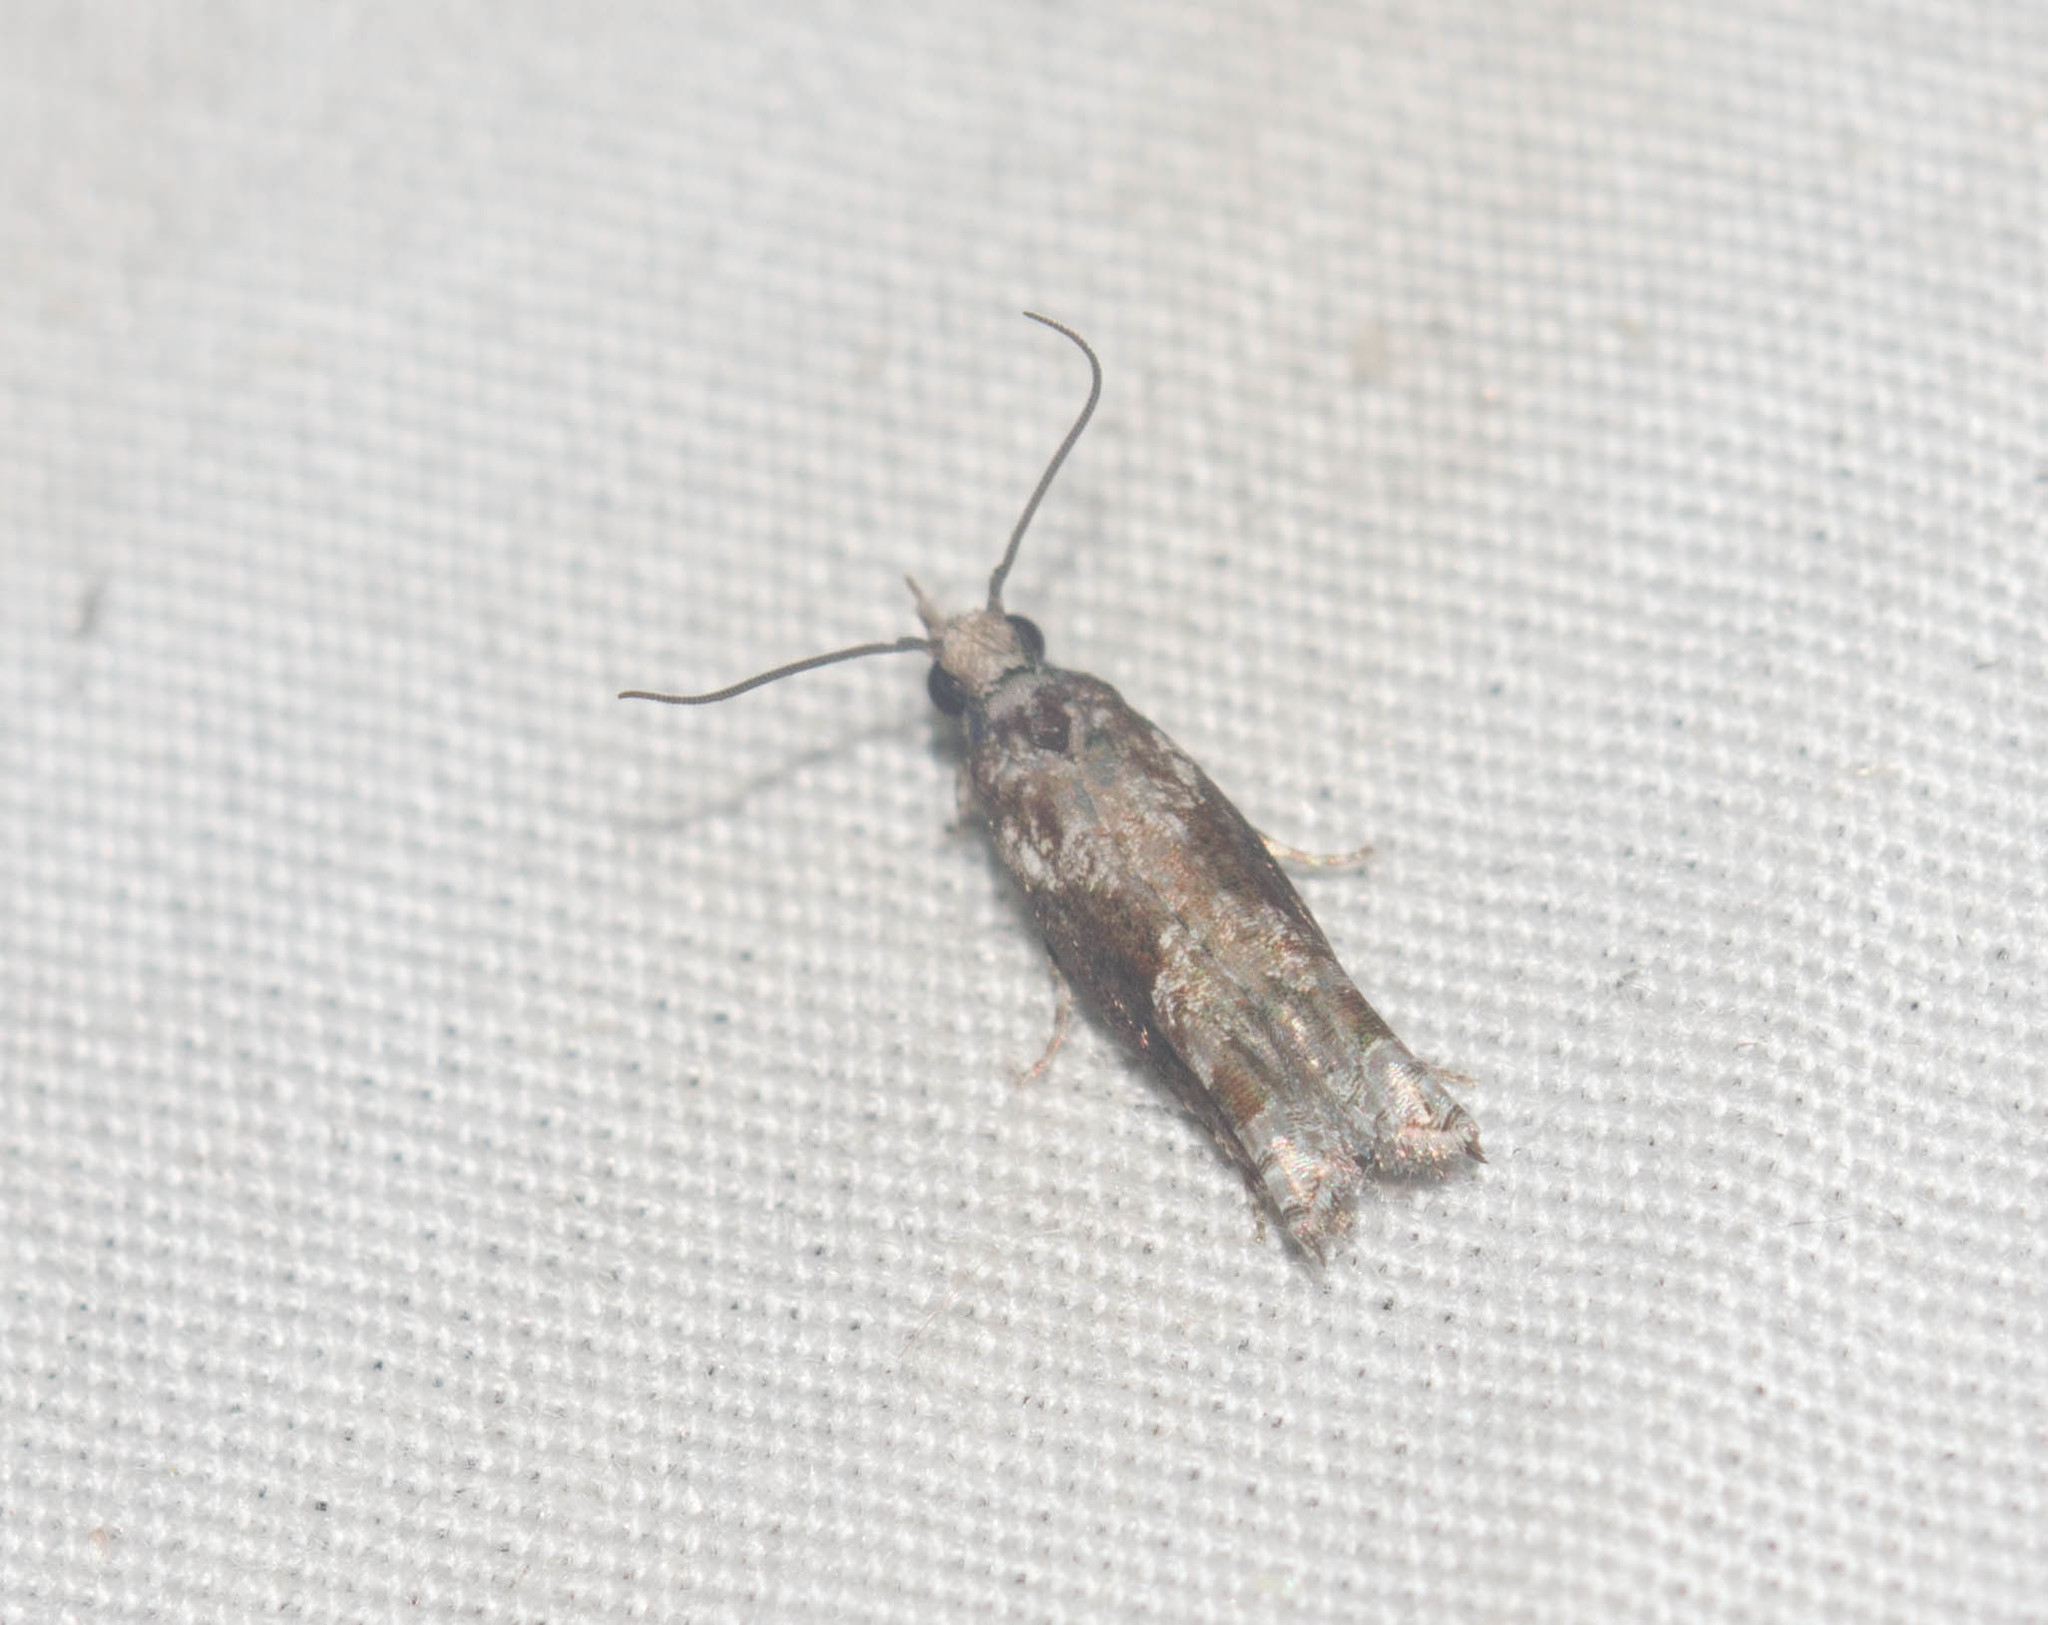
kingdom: Animalia
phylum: Arthropoda
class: Insecta
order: Lepidoptera
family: Tortricidae
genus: Eccoptocera
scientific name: Eccoptocera foetorivorans
